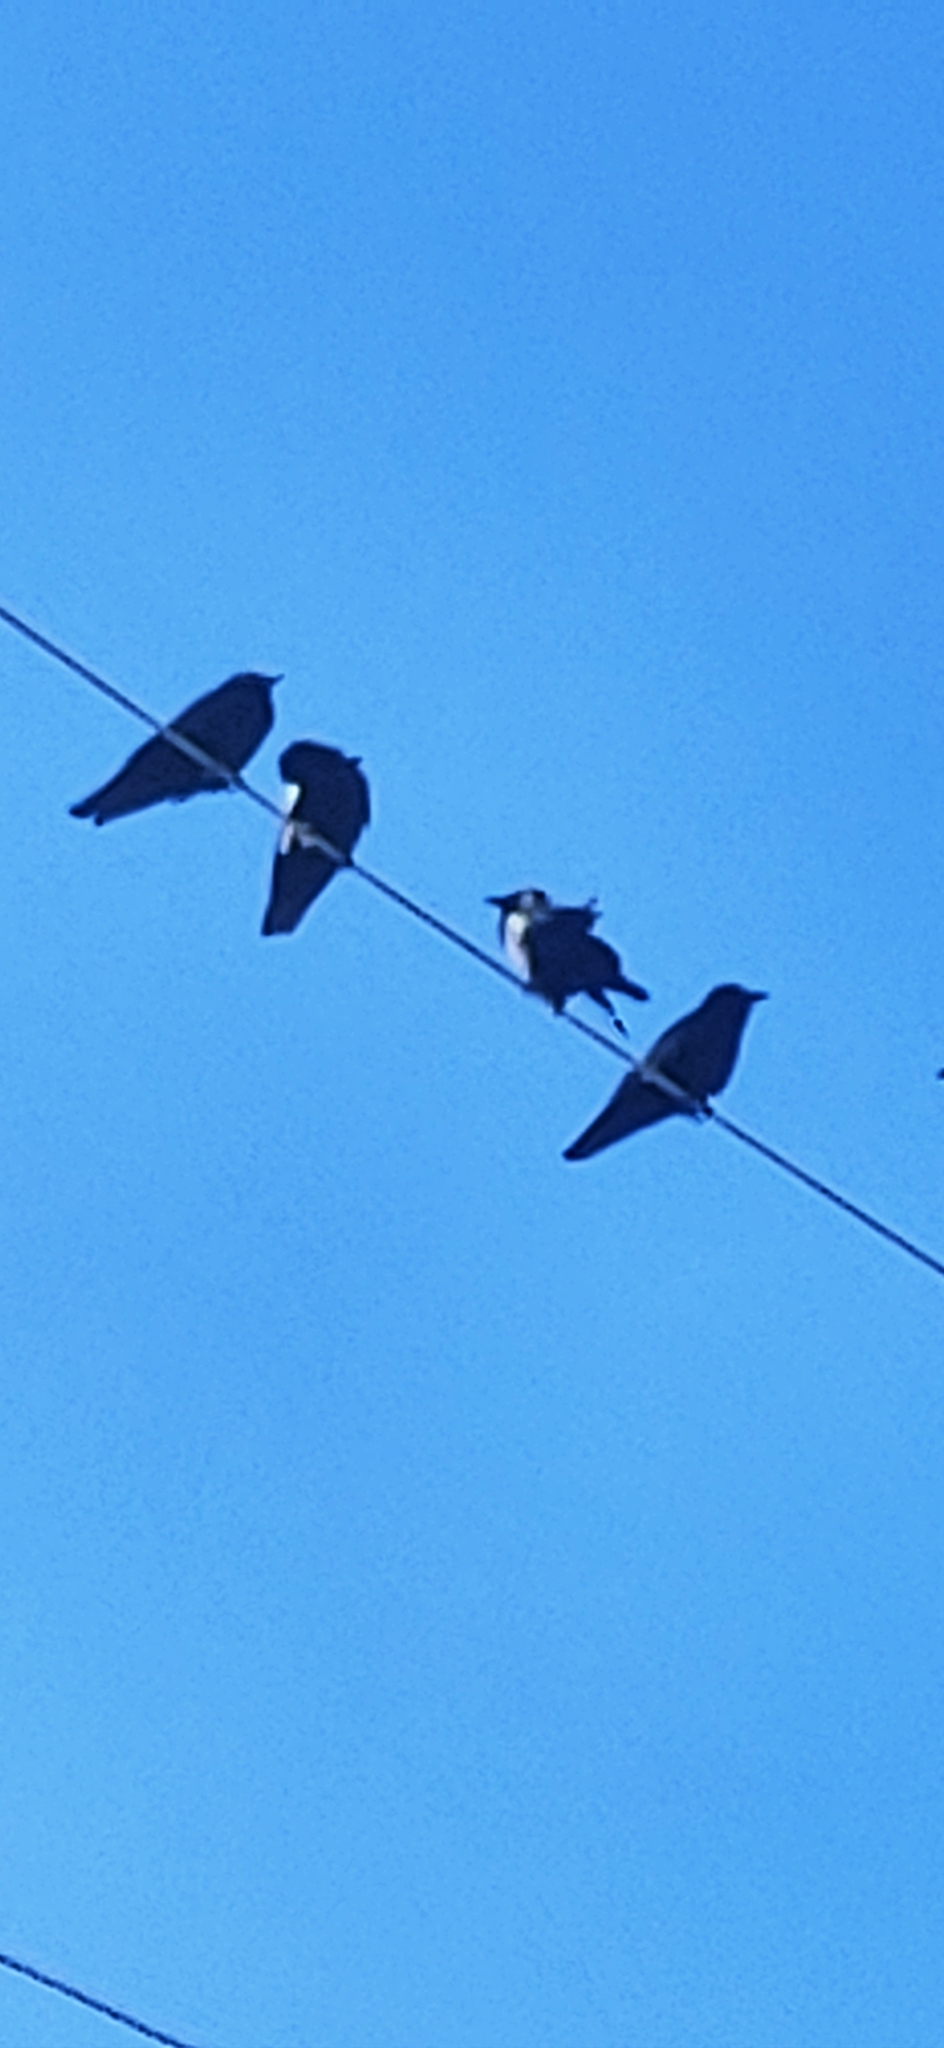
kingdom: Animalia
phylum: Chordata
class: Aves
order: Passeriformes
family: Corvidae
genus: Corvus
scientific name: Corvus ossifragus
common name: Fish crow
